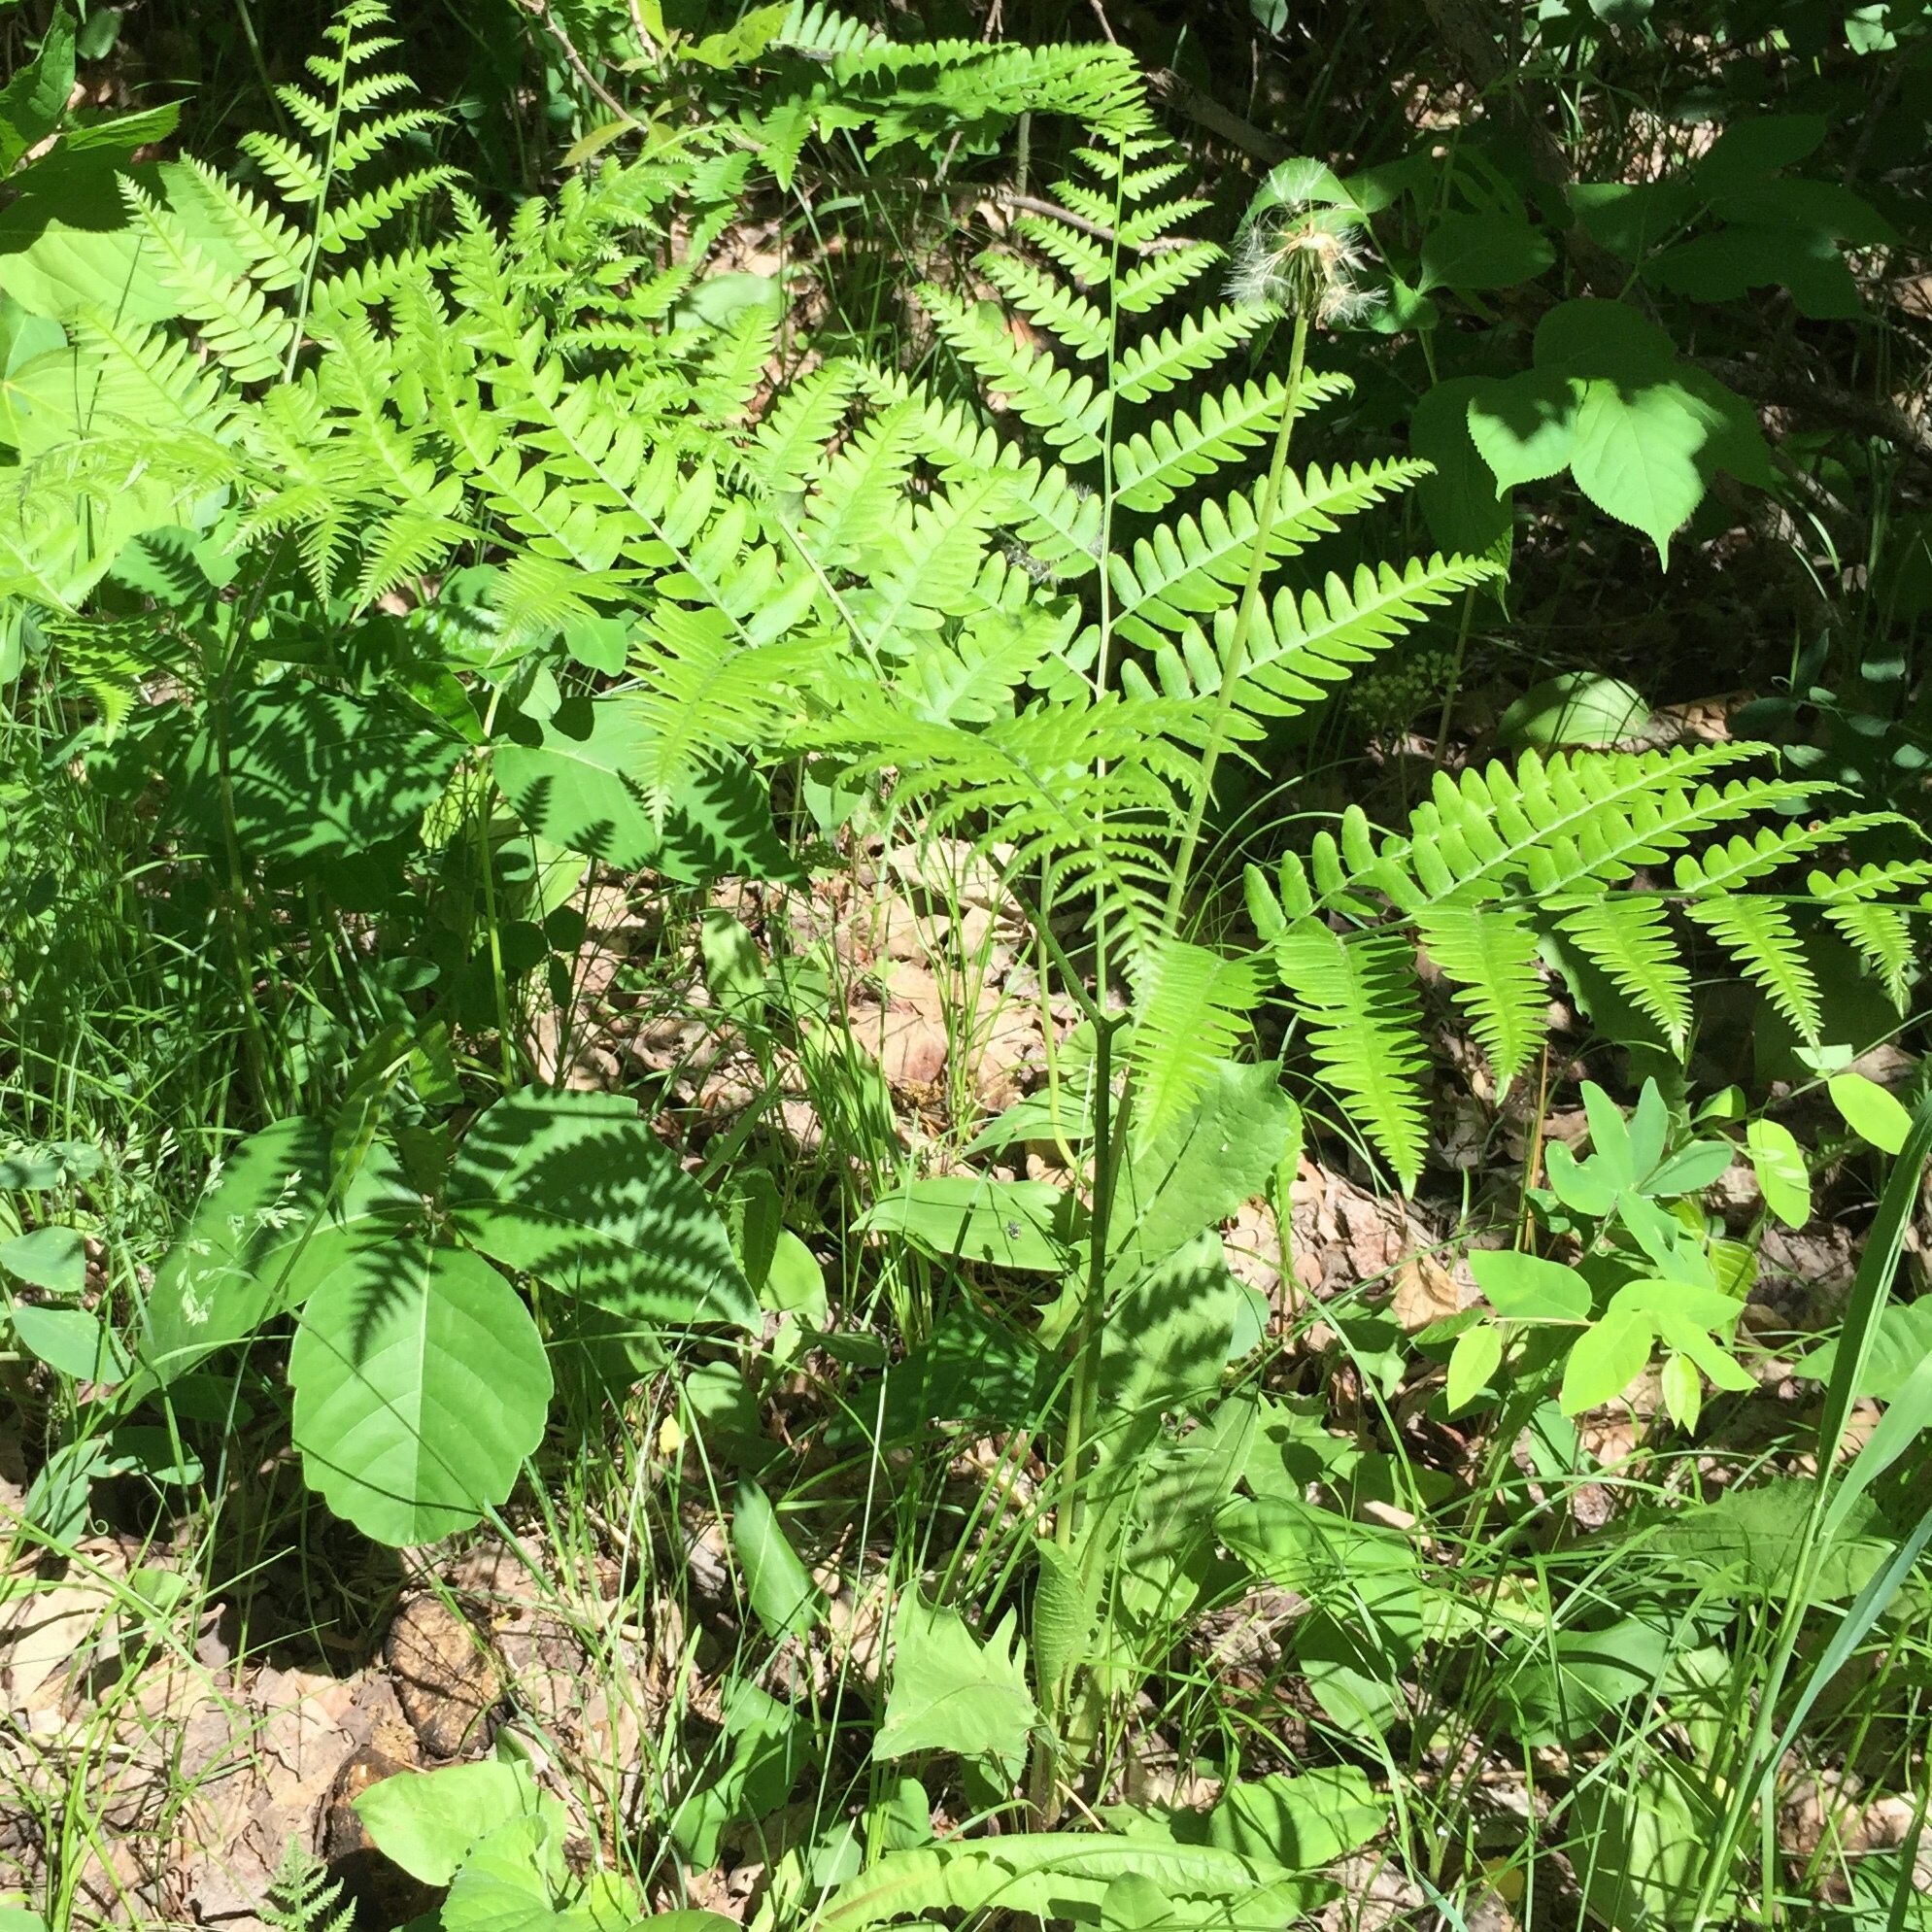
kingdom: Plantae
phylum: Tracheophyta
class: Polypodiopsida
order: Polypodiales
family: Dennstaedtiaceae
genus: Pteridium
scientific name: Pteridium aquilinum
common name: Bracken
